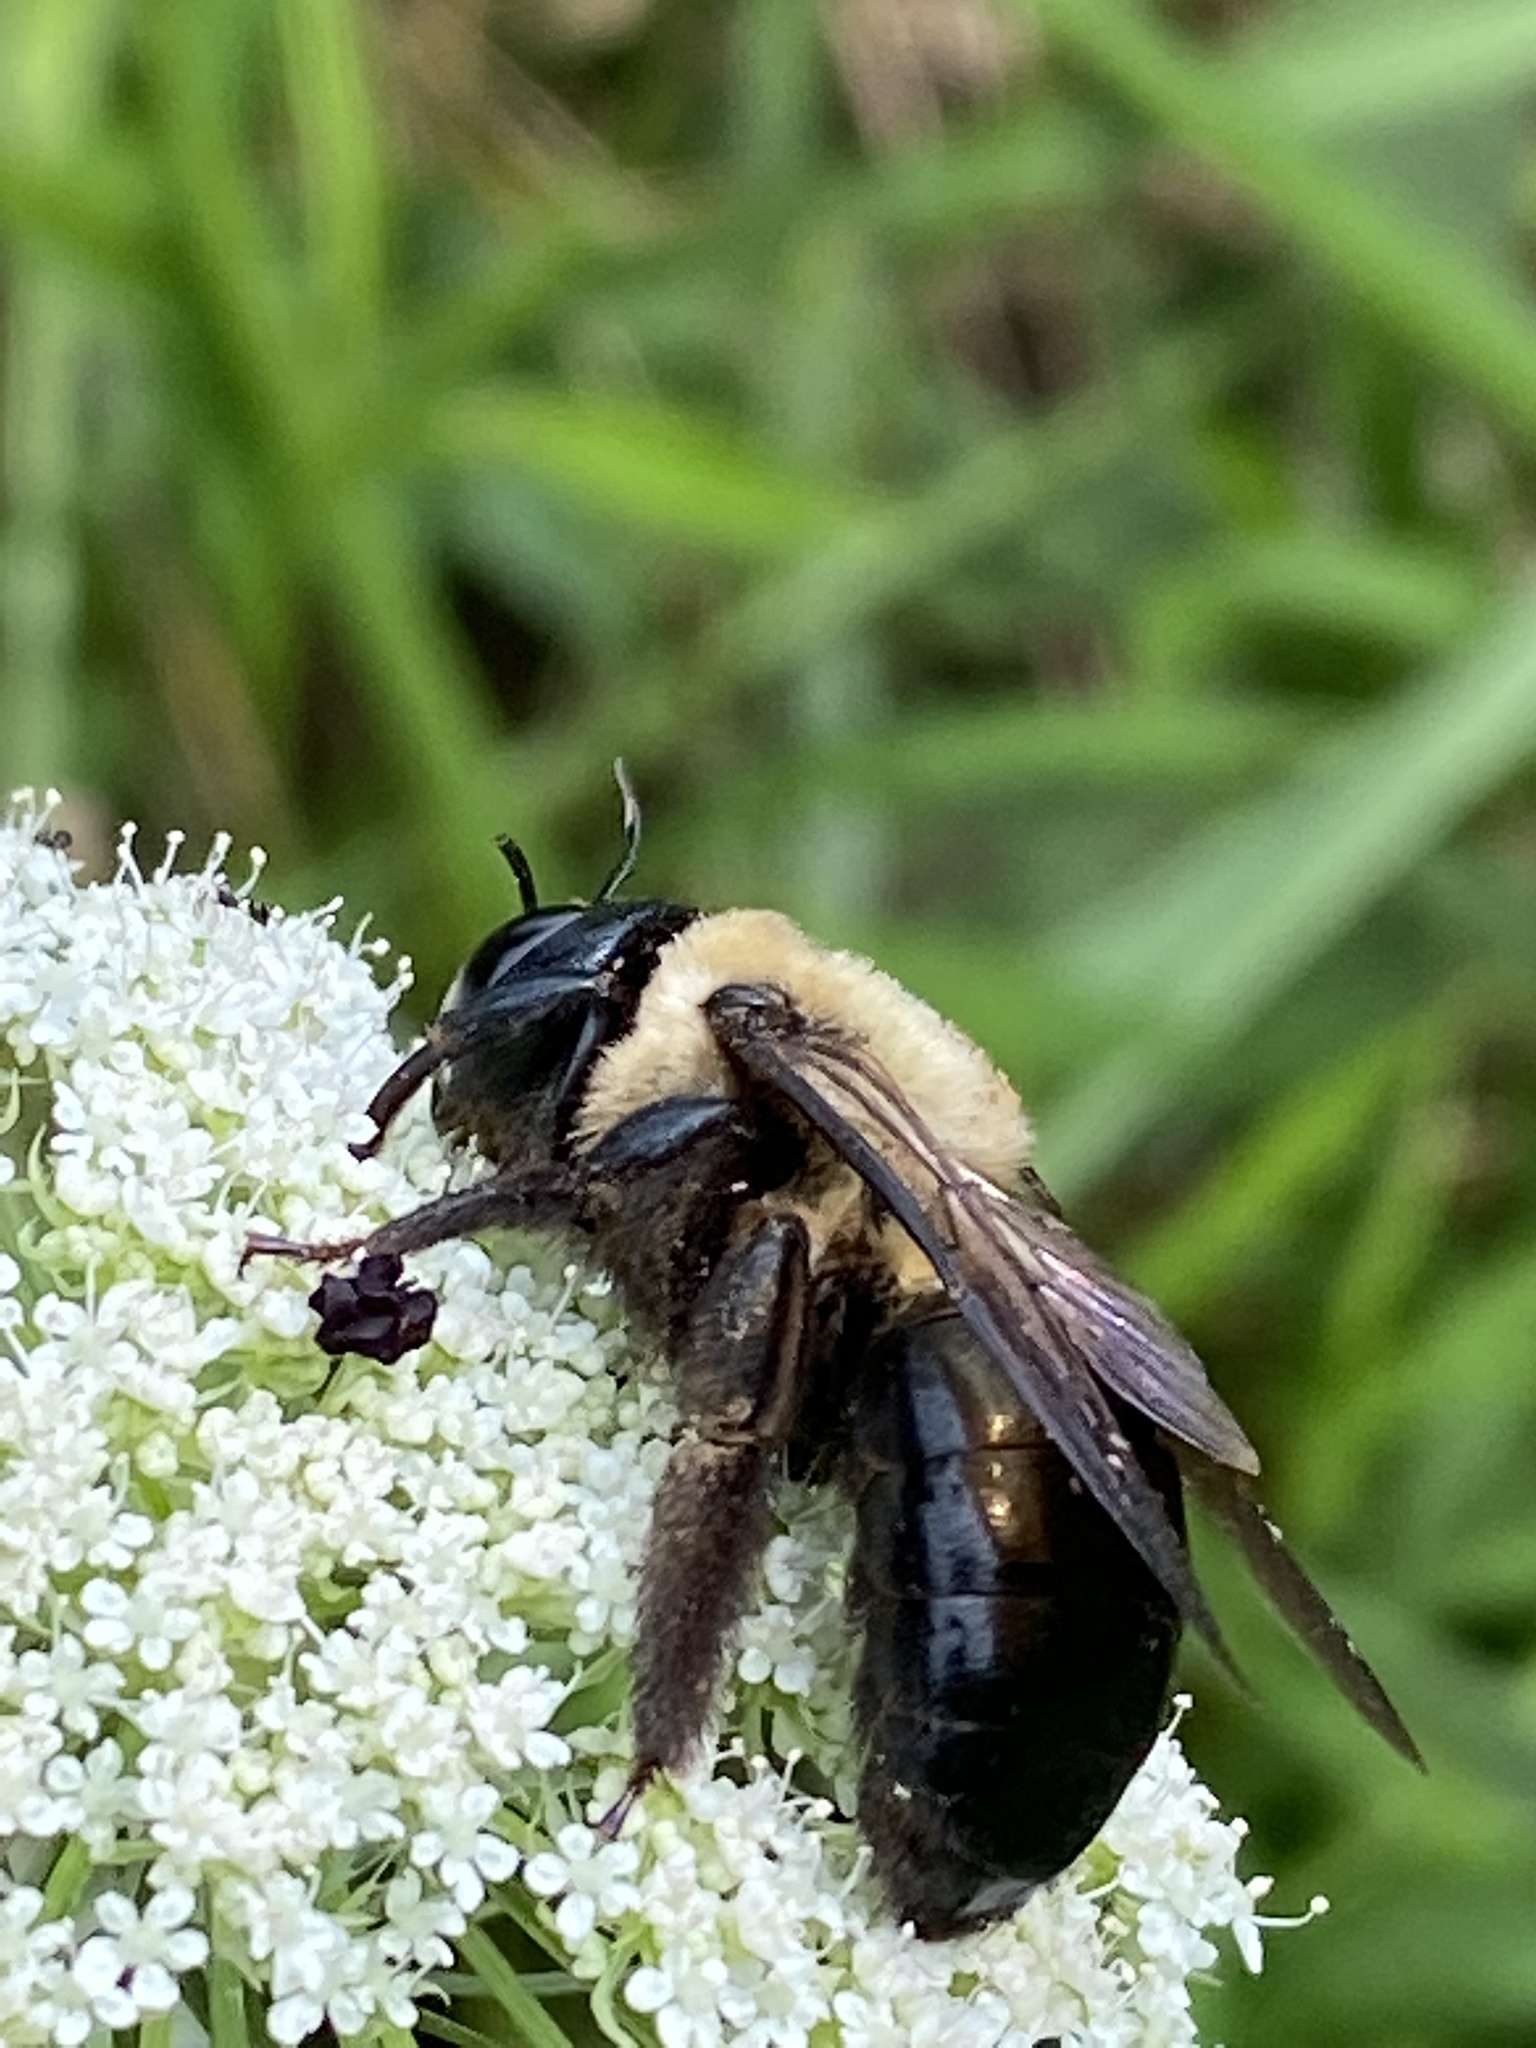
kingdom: Animalia
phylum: Arthropoda
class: Insecta
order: Hymenoptera
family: Apidae
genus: Xylocopa
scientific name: Xylocopa virginica
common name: Carpenter bee
